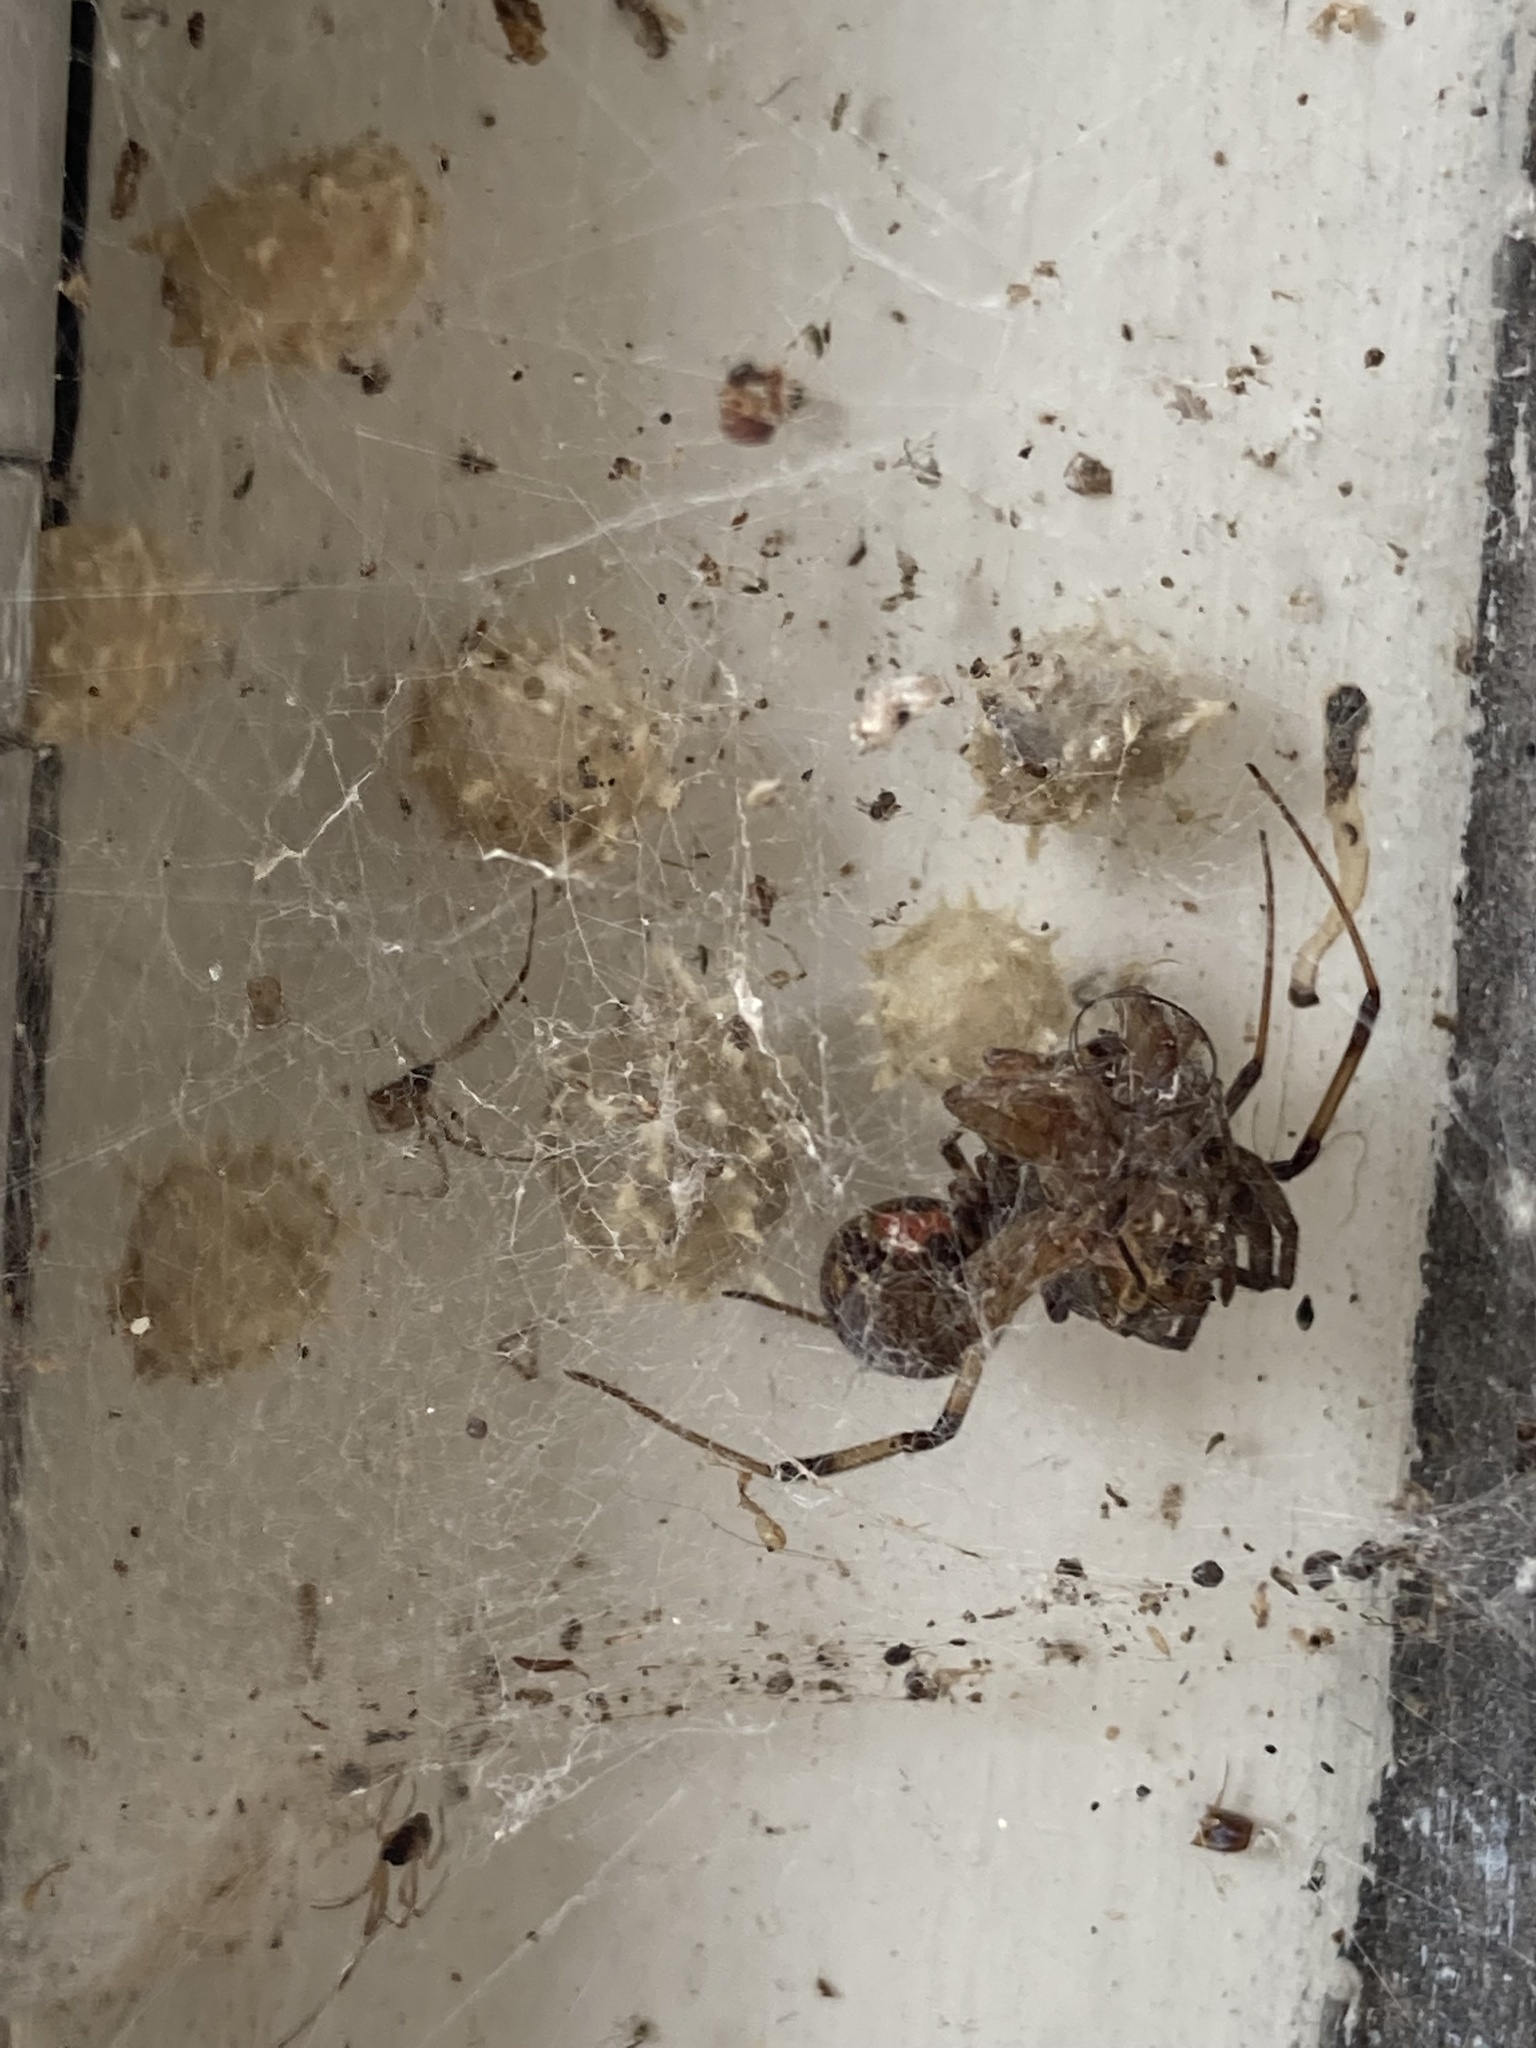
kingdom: Animalia
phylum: Arthropoda
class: Arachnida
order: Araneae
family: Theridiidae
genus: Latrodectus
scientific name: Latrodectus geometricus
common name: Brown widow spider
